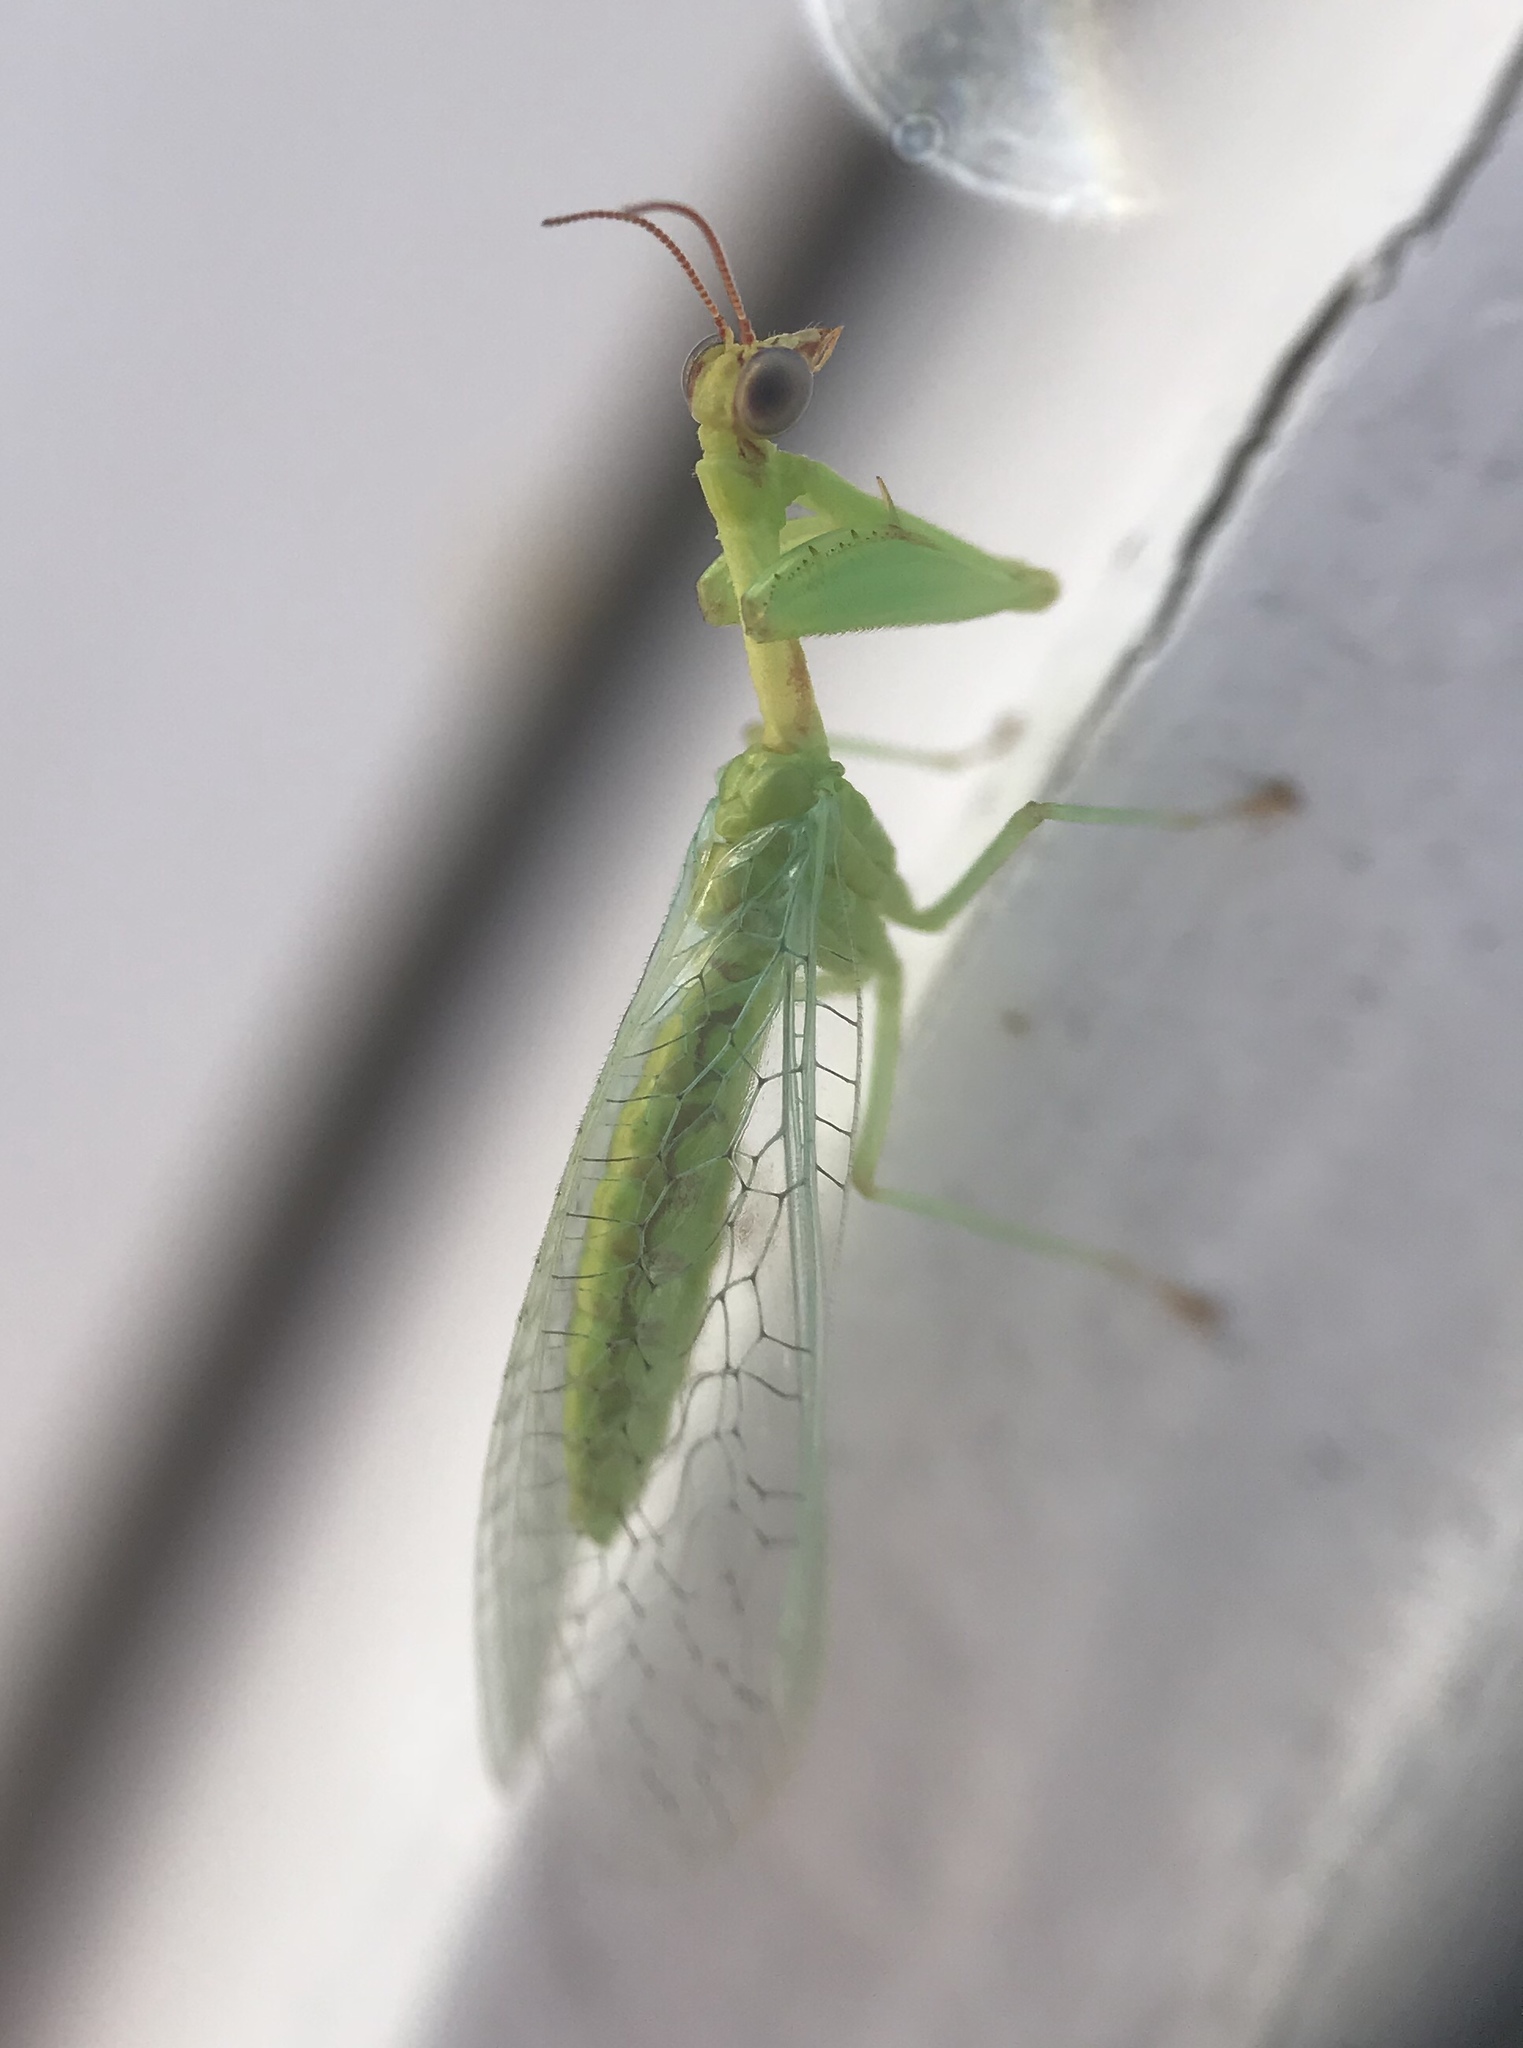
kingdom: Animalia
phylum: Arthropoda
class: Insecta
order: Neuroptera
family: Mantispidae
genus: Zeugomantispa
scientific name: Zeugomantispa minuta
